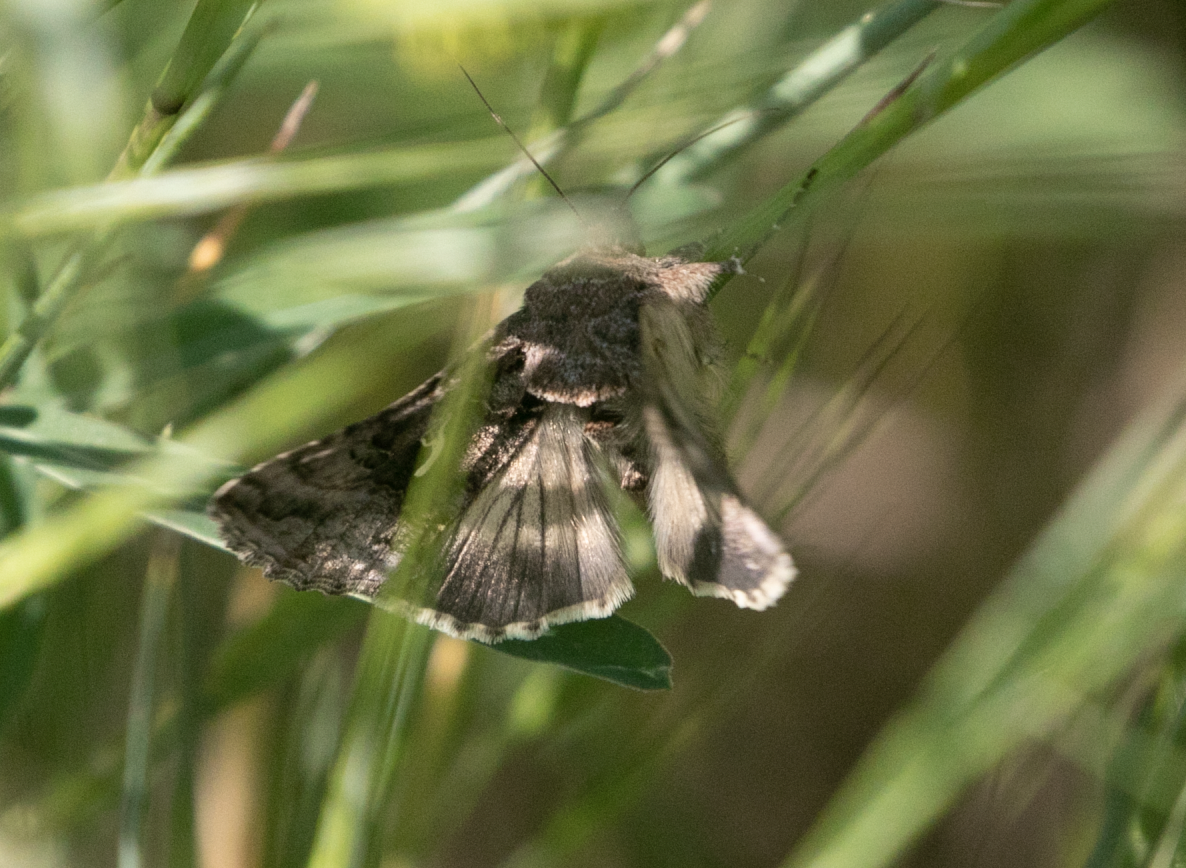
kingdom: Animalia
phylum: Arthropoda
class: Insecta
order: Lepidoptera
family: Noctuidae
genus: Autographa
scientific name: Autographa gamma
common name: Silver y
